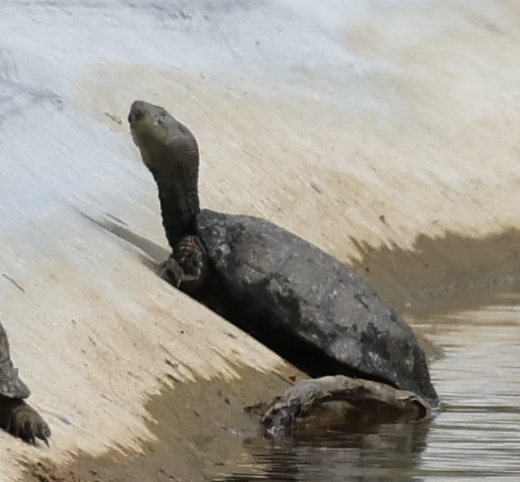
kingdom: Animalia
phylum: Chordata
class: Testudines
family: Geoemydidae
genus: Mauremys
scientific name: Mauremys leprosa
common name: Mediterranean pond turtle
